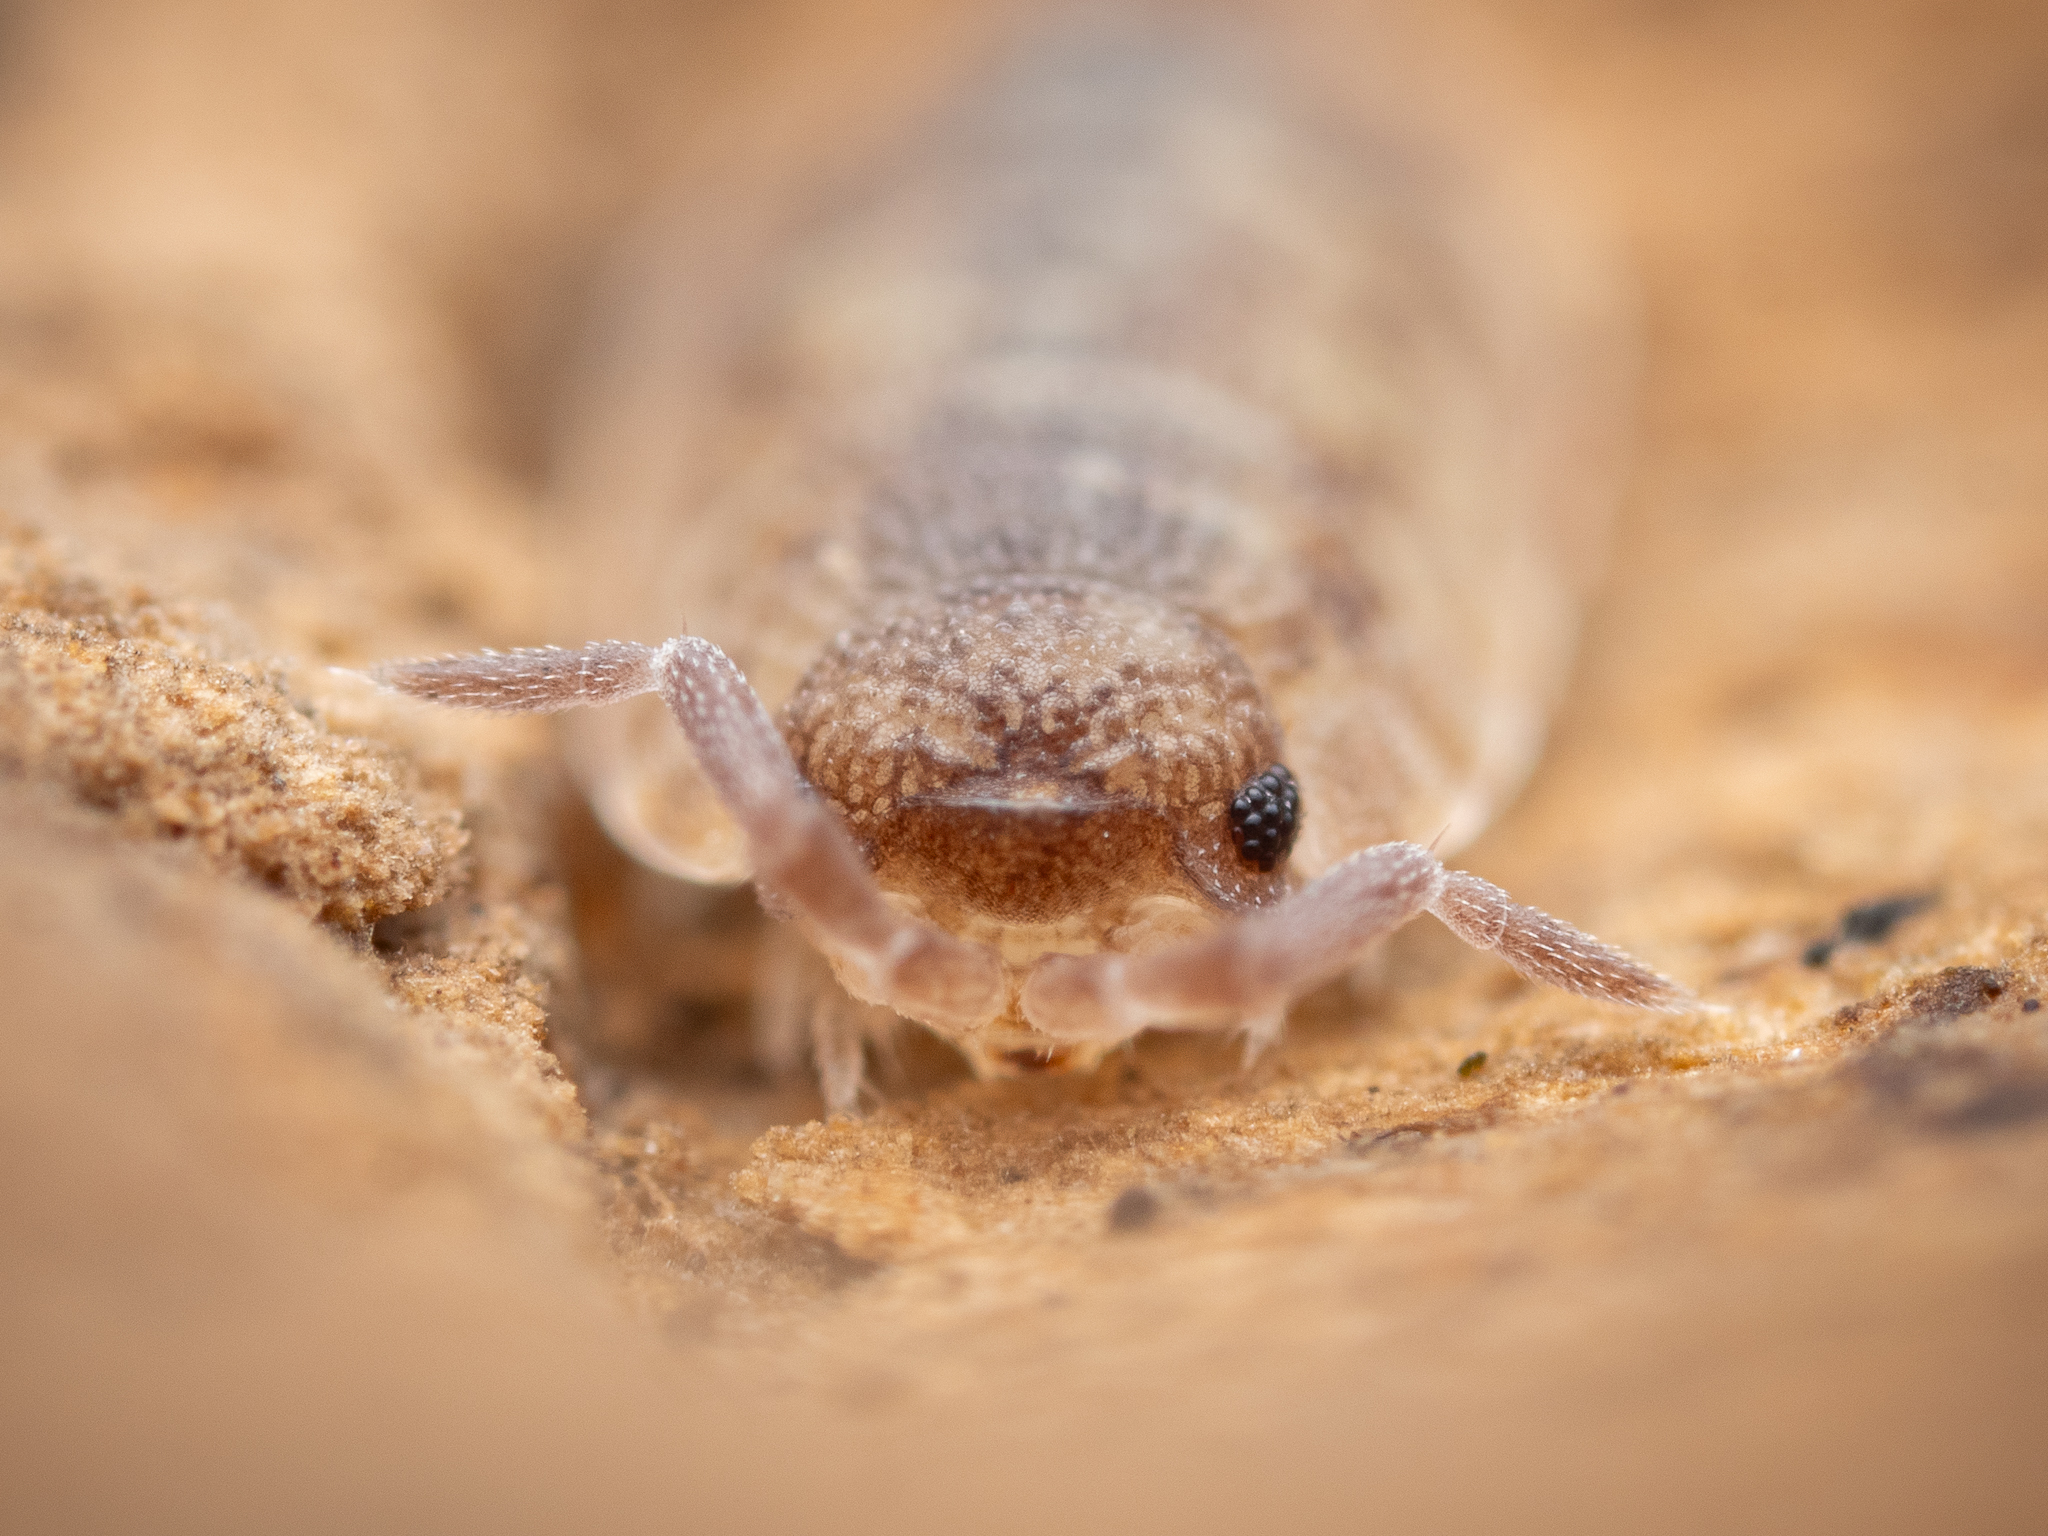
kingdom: Animalia
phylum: Arthropoda
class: Malacostraca
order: Isopoda
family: Porcellionidae
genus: Porcellio
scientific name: Porcellio scaber
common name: Common rough woodlouse
